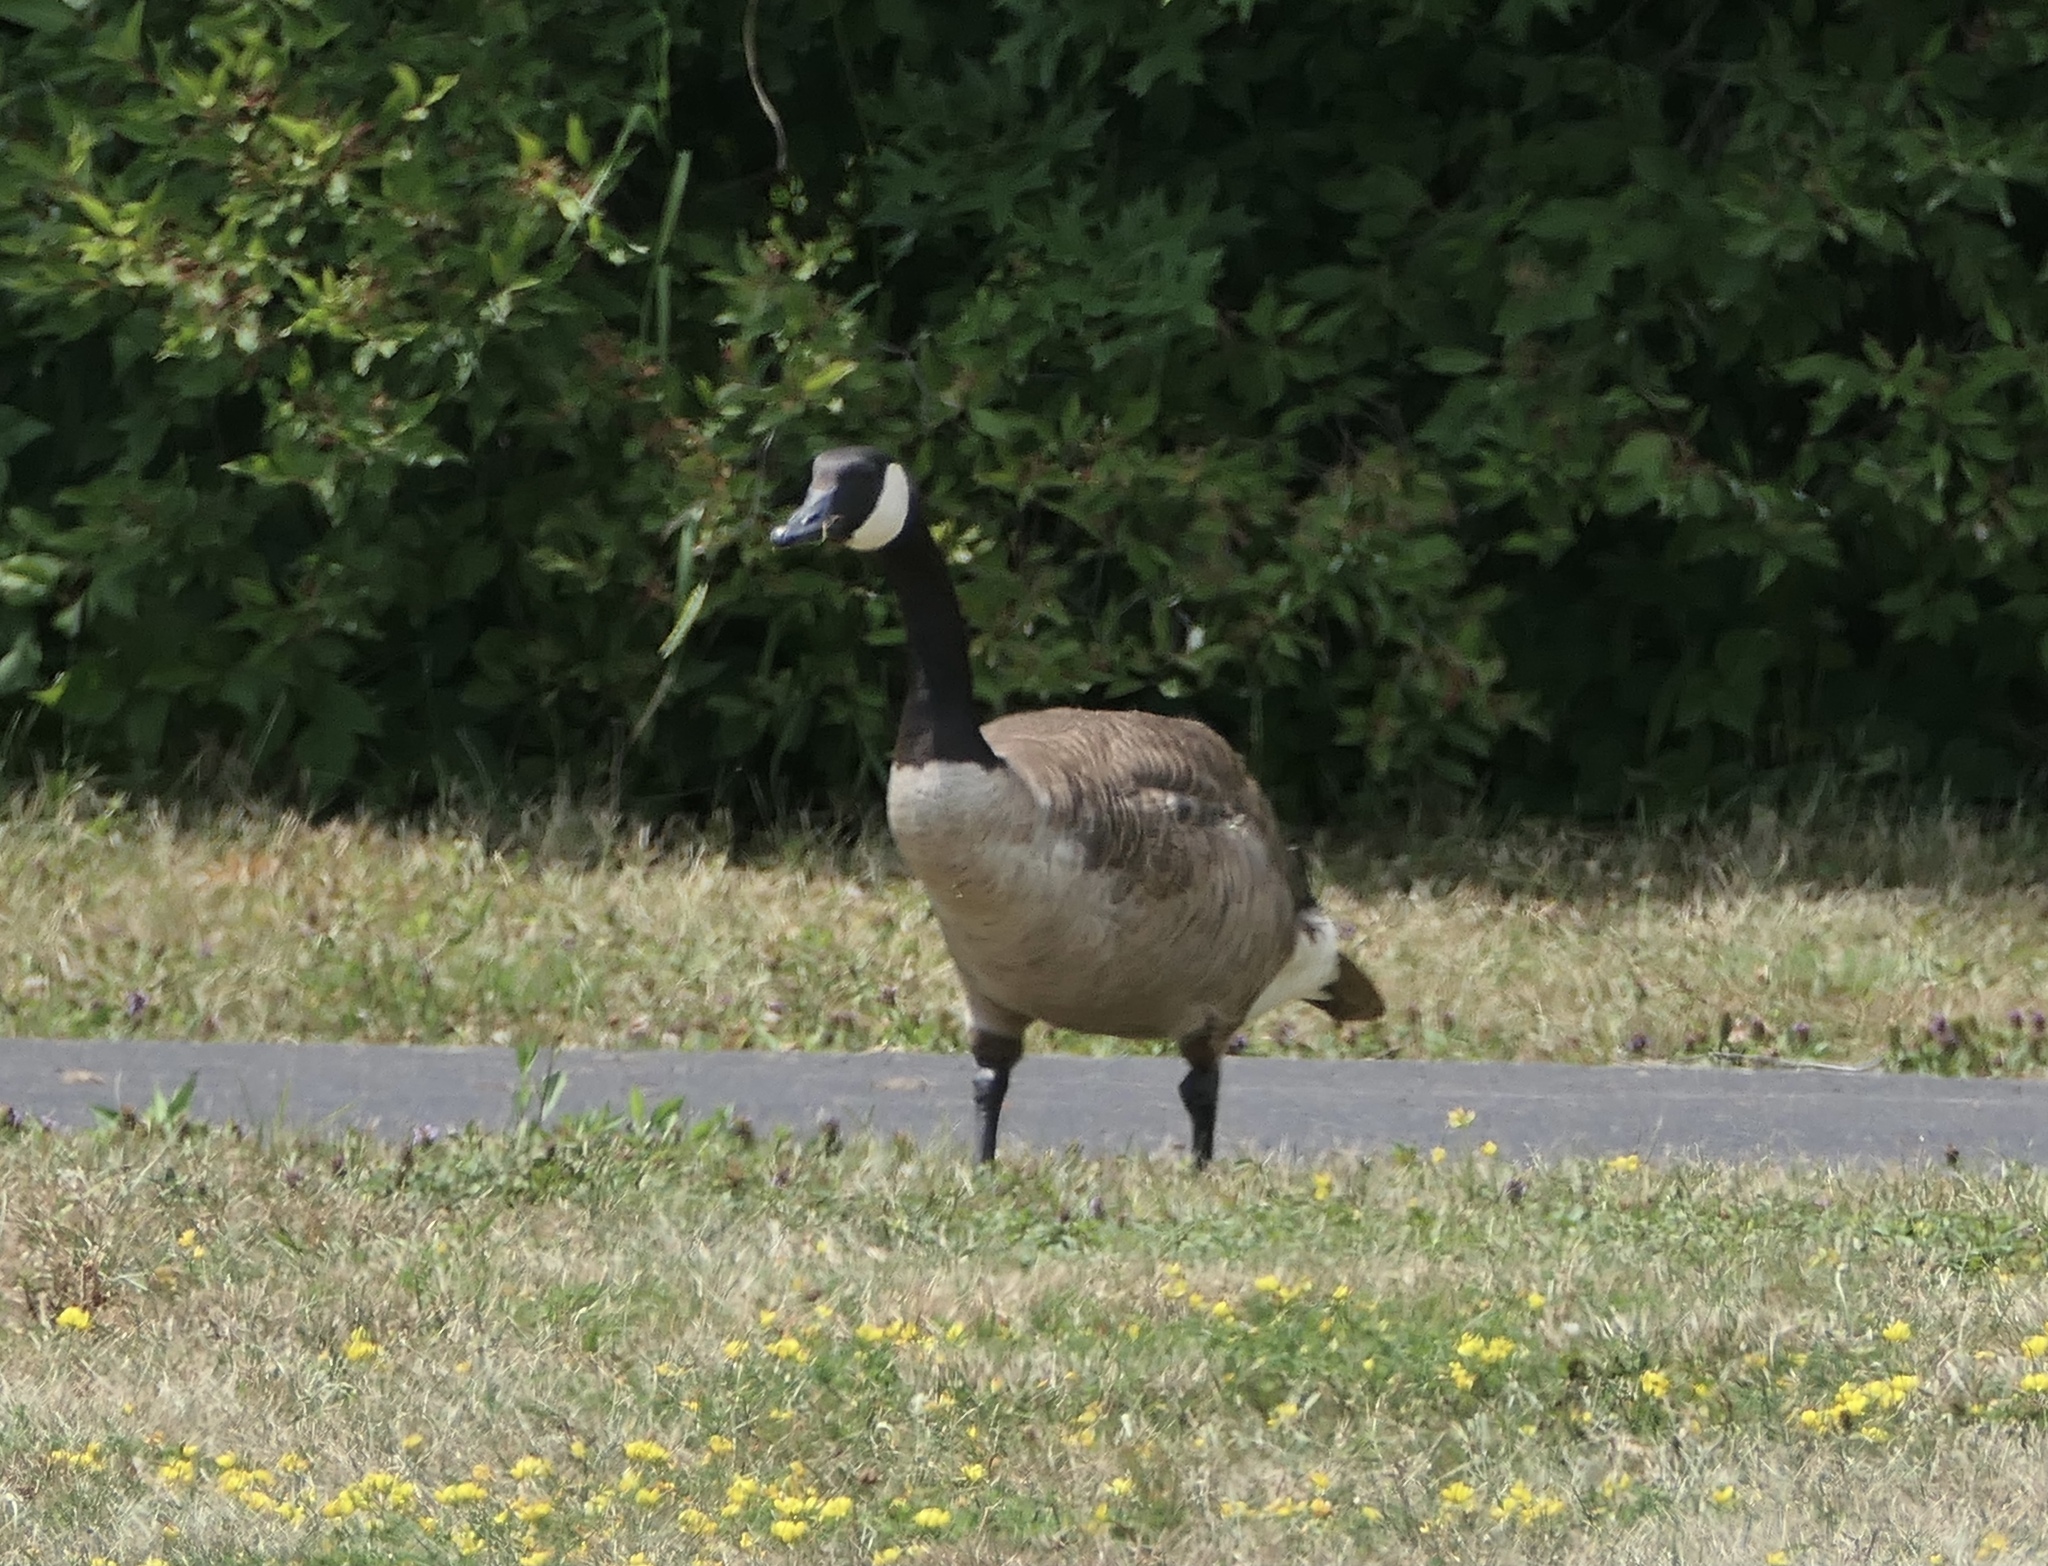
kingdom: Animalia
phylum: Chordata
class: Aves
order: Anseriformes
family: Anatidae
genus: Branta
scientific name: Branta canadensis
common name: Canada goose
